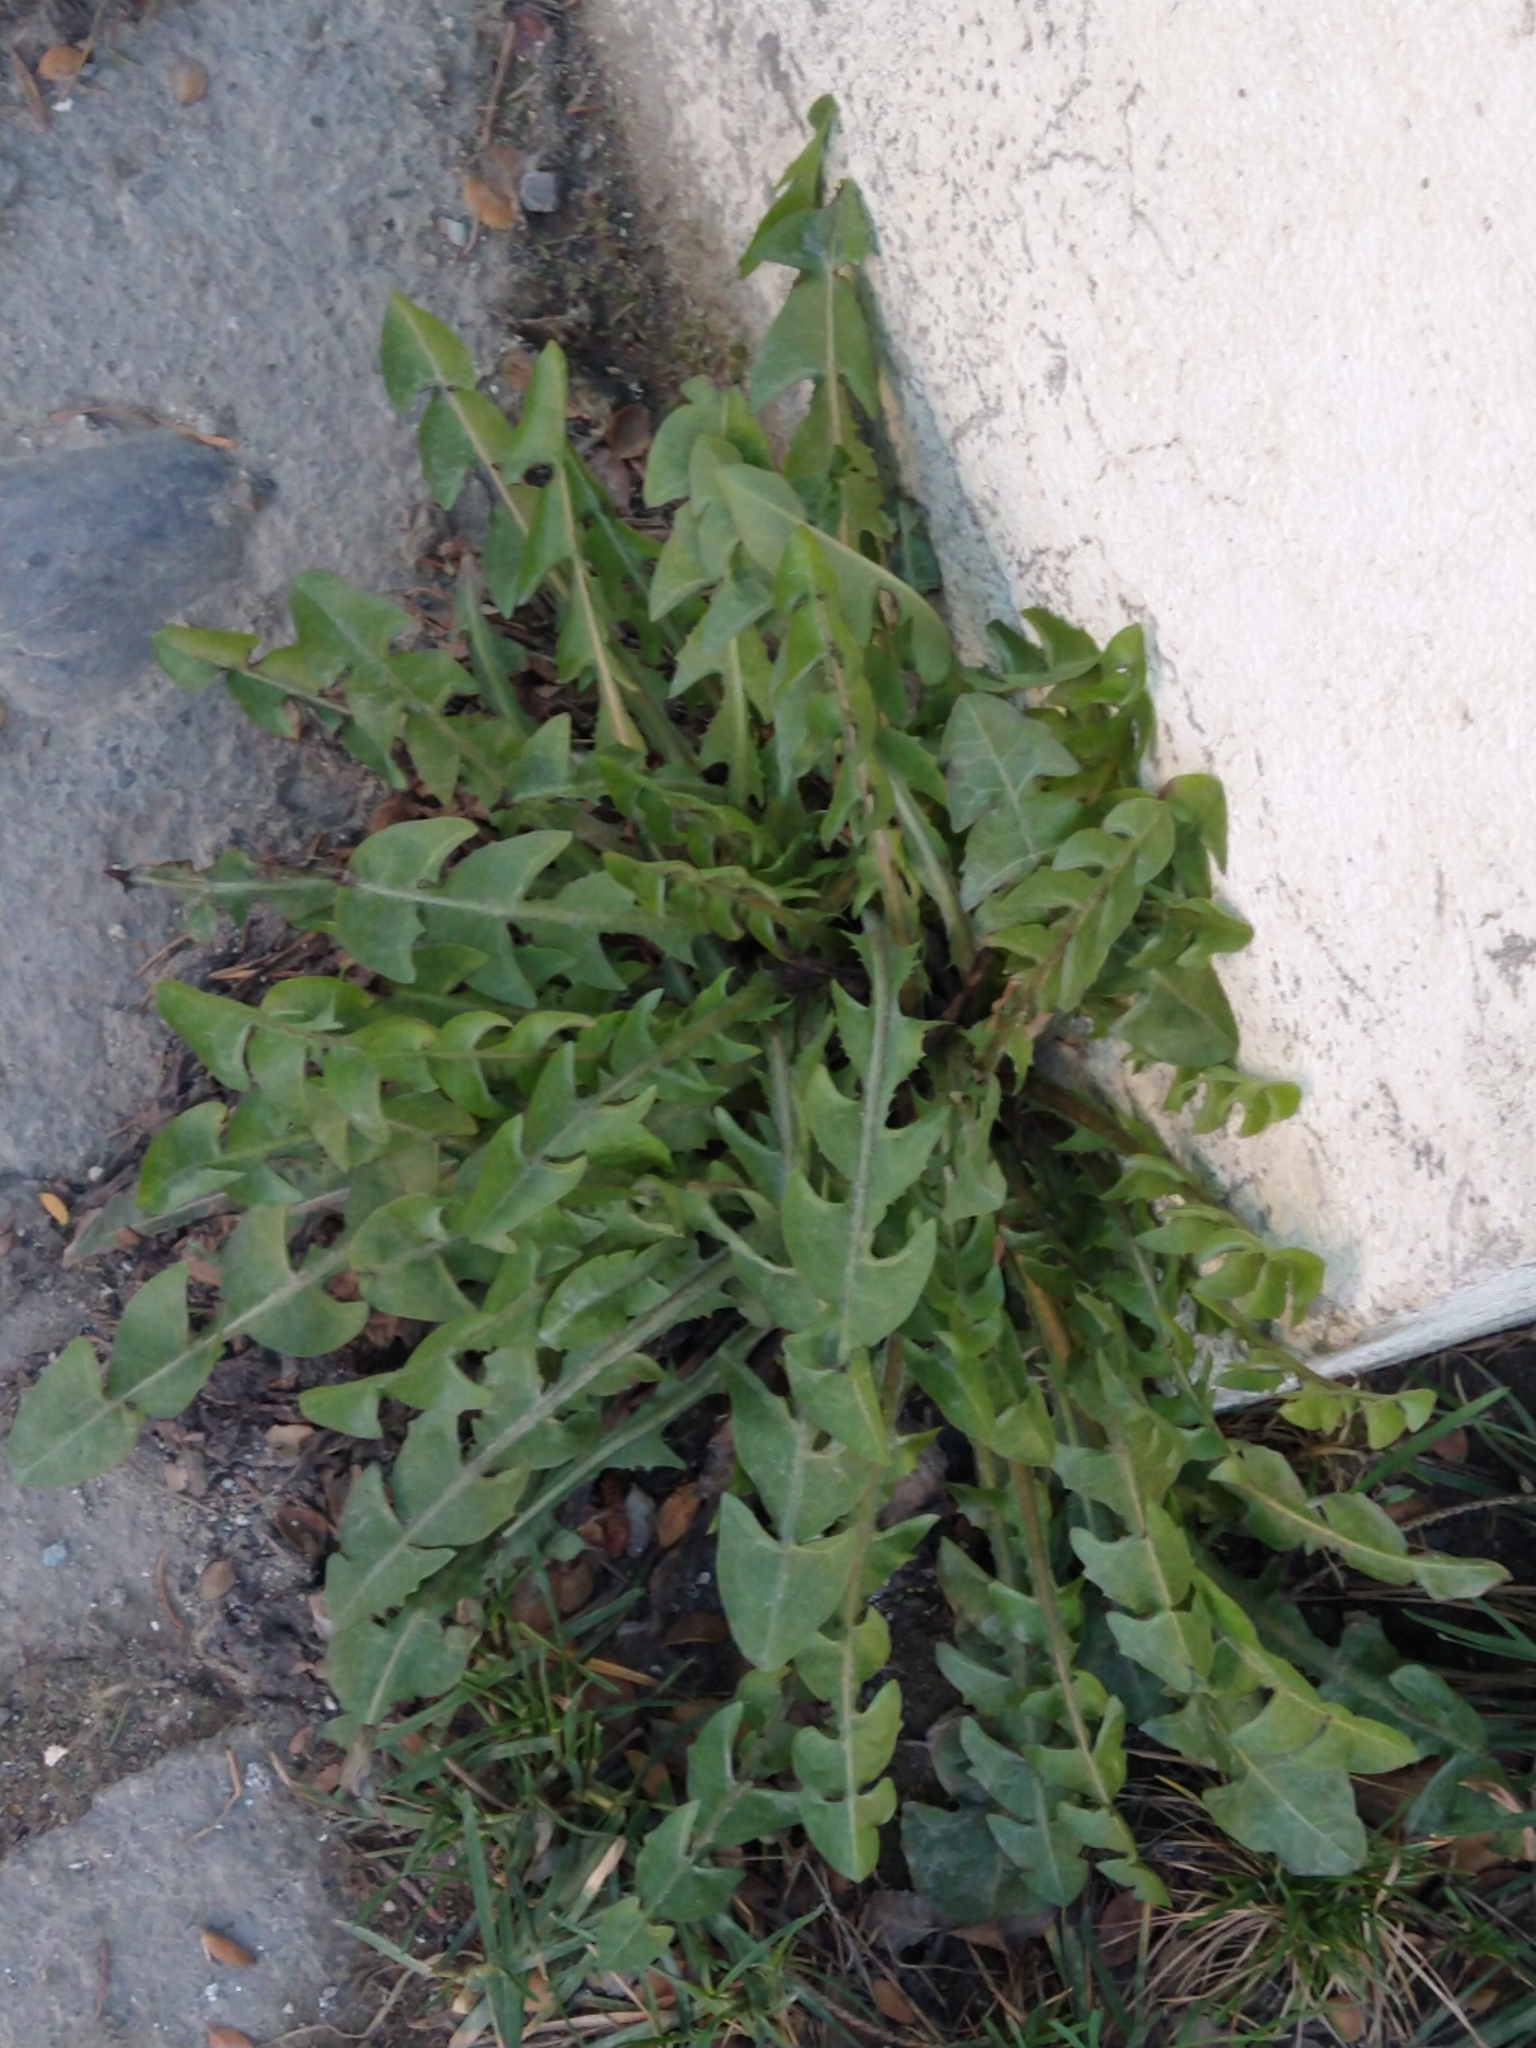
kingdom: Plantae
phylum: Tracheophyta
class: Magnoliopsida
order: Asterales
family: Asteraceae
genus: Taraxacum
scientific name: Taraxacum officinale
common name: Common dandelion
